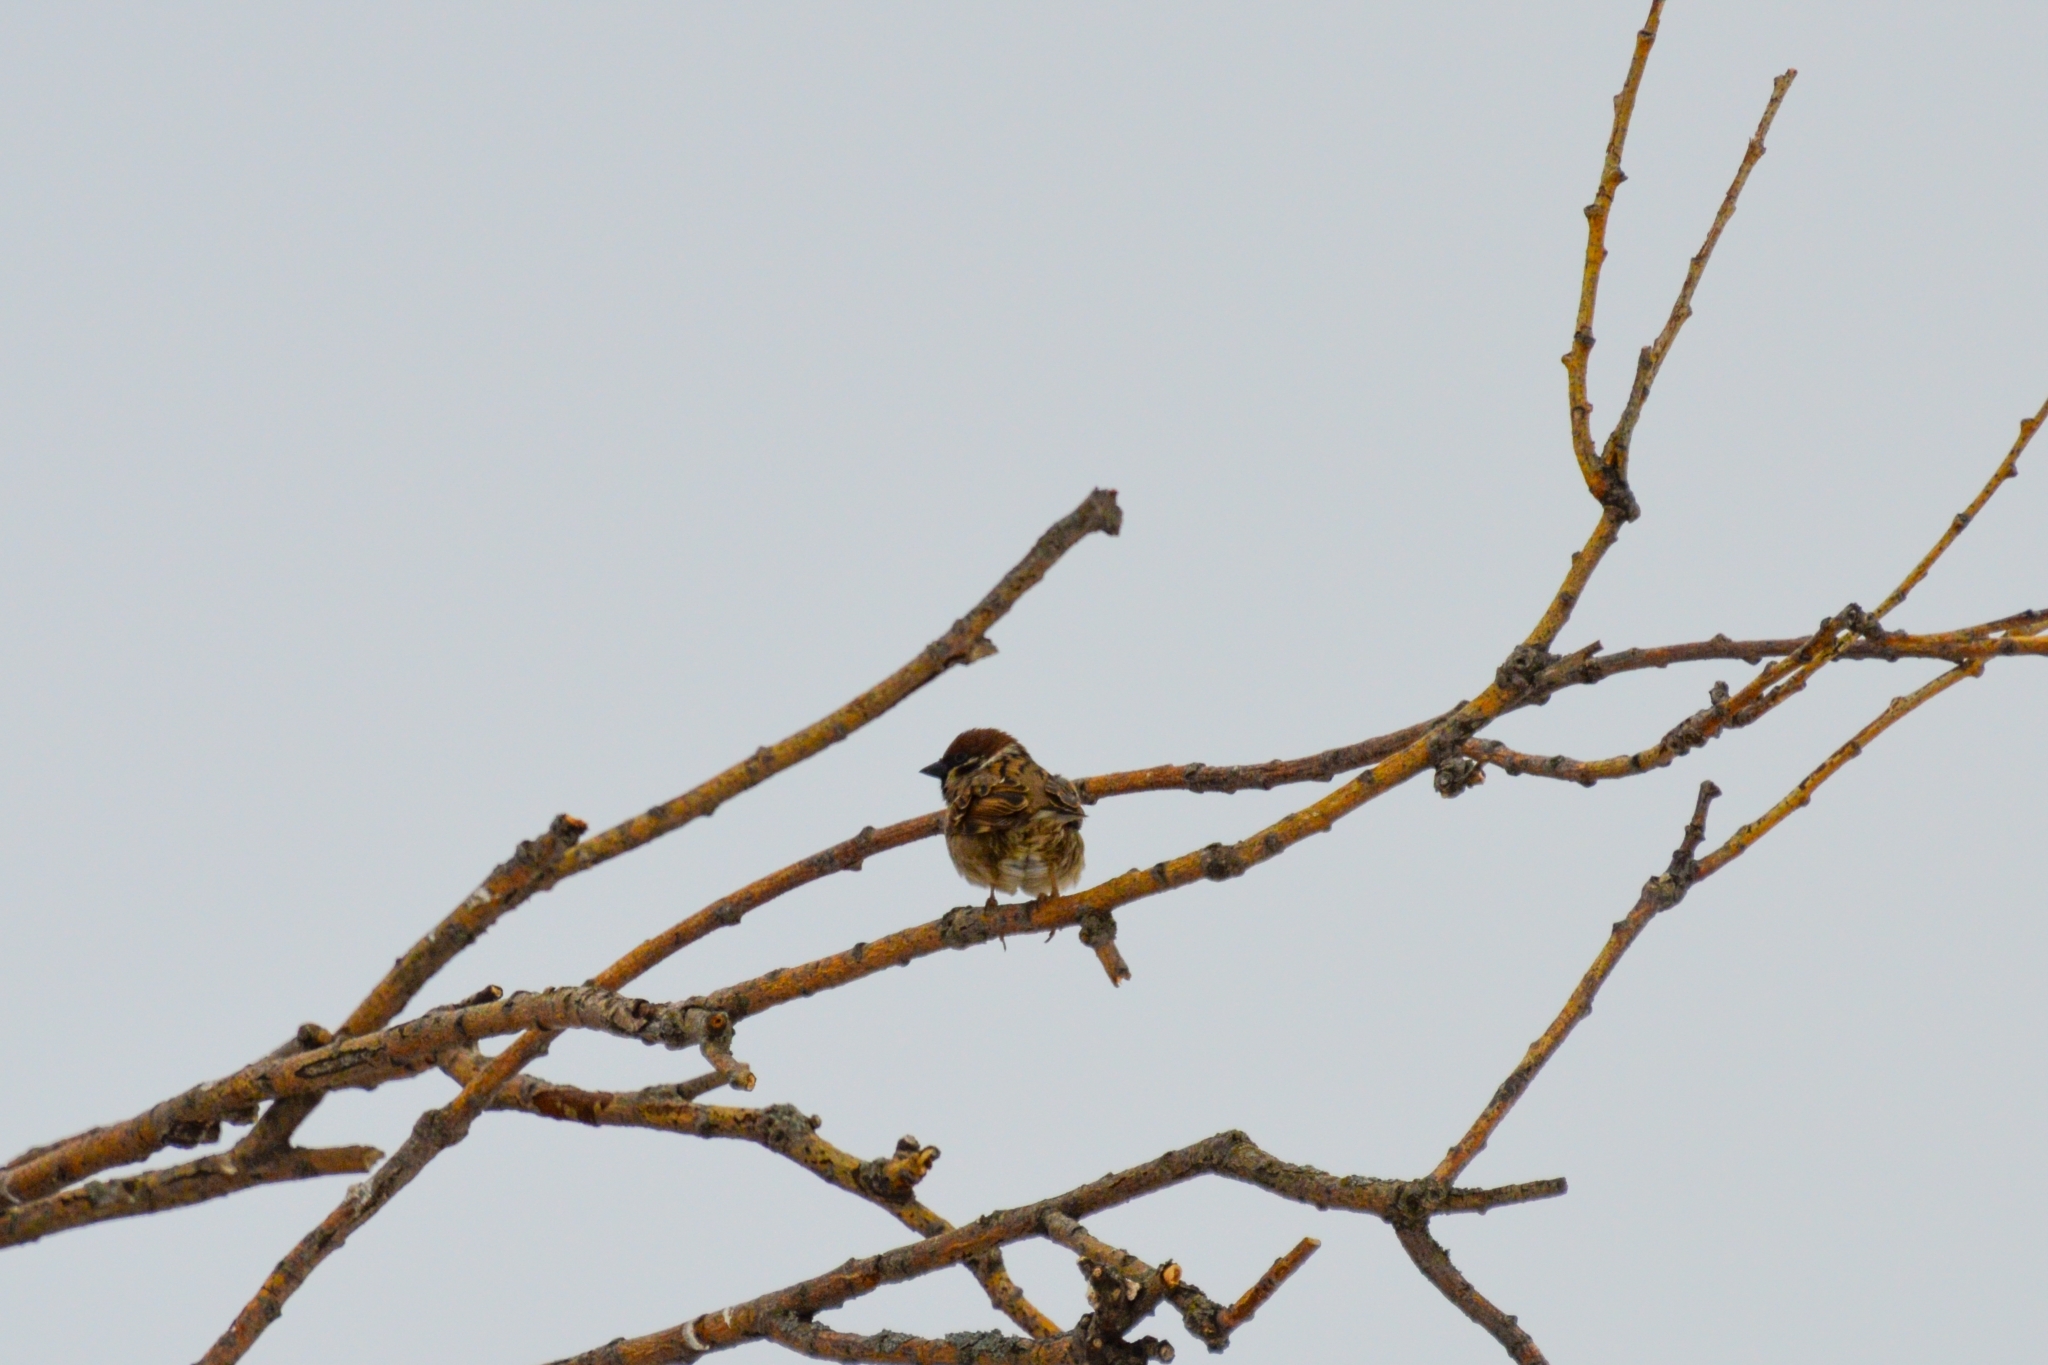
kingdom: Animalia
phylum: Chordata
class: Aves
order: Passeriformes
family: Passeridae
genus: Passer
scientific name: Passer montanus
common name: Eurasian tree sparrow
